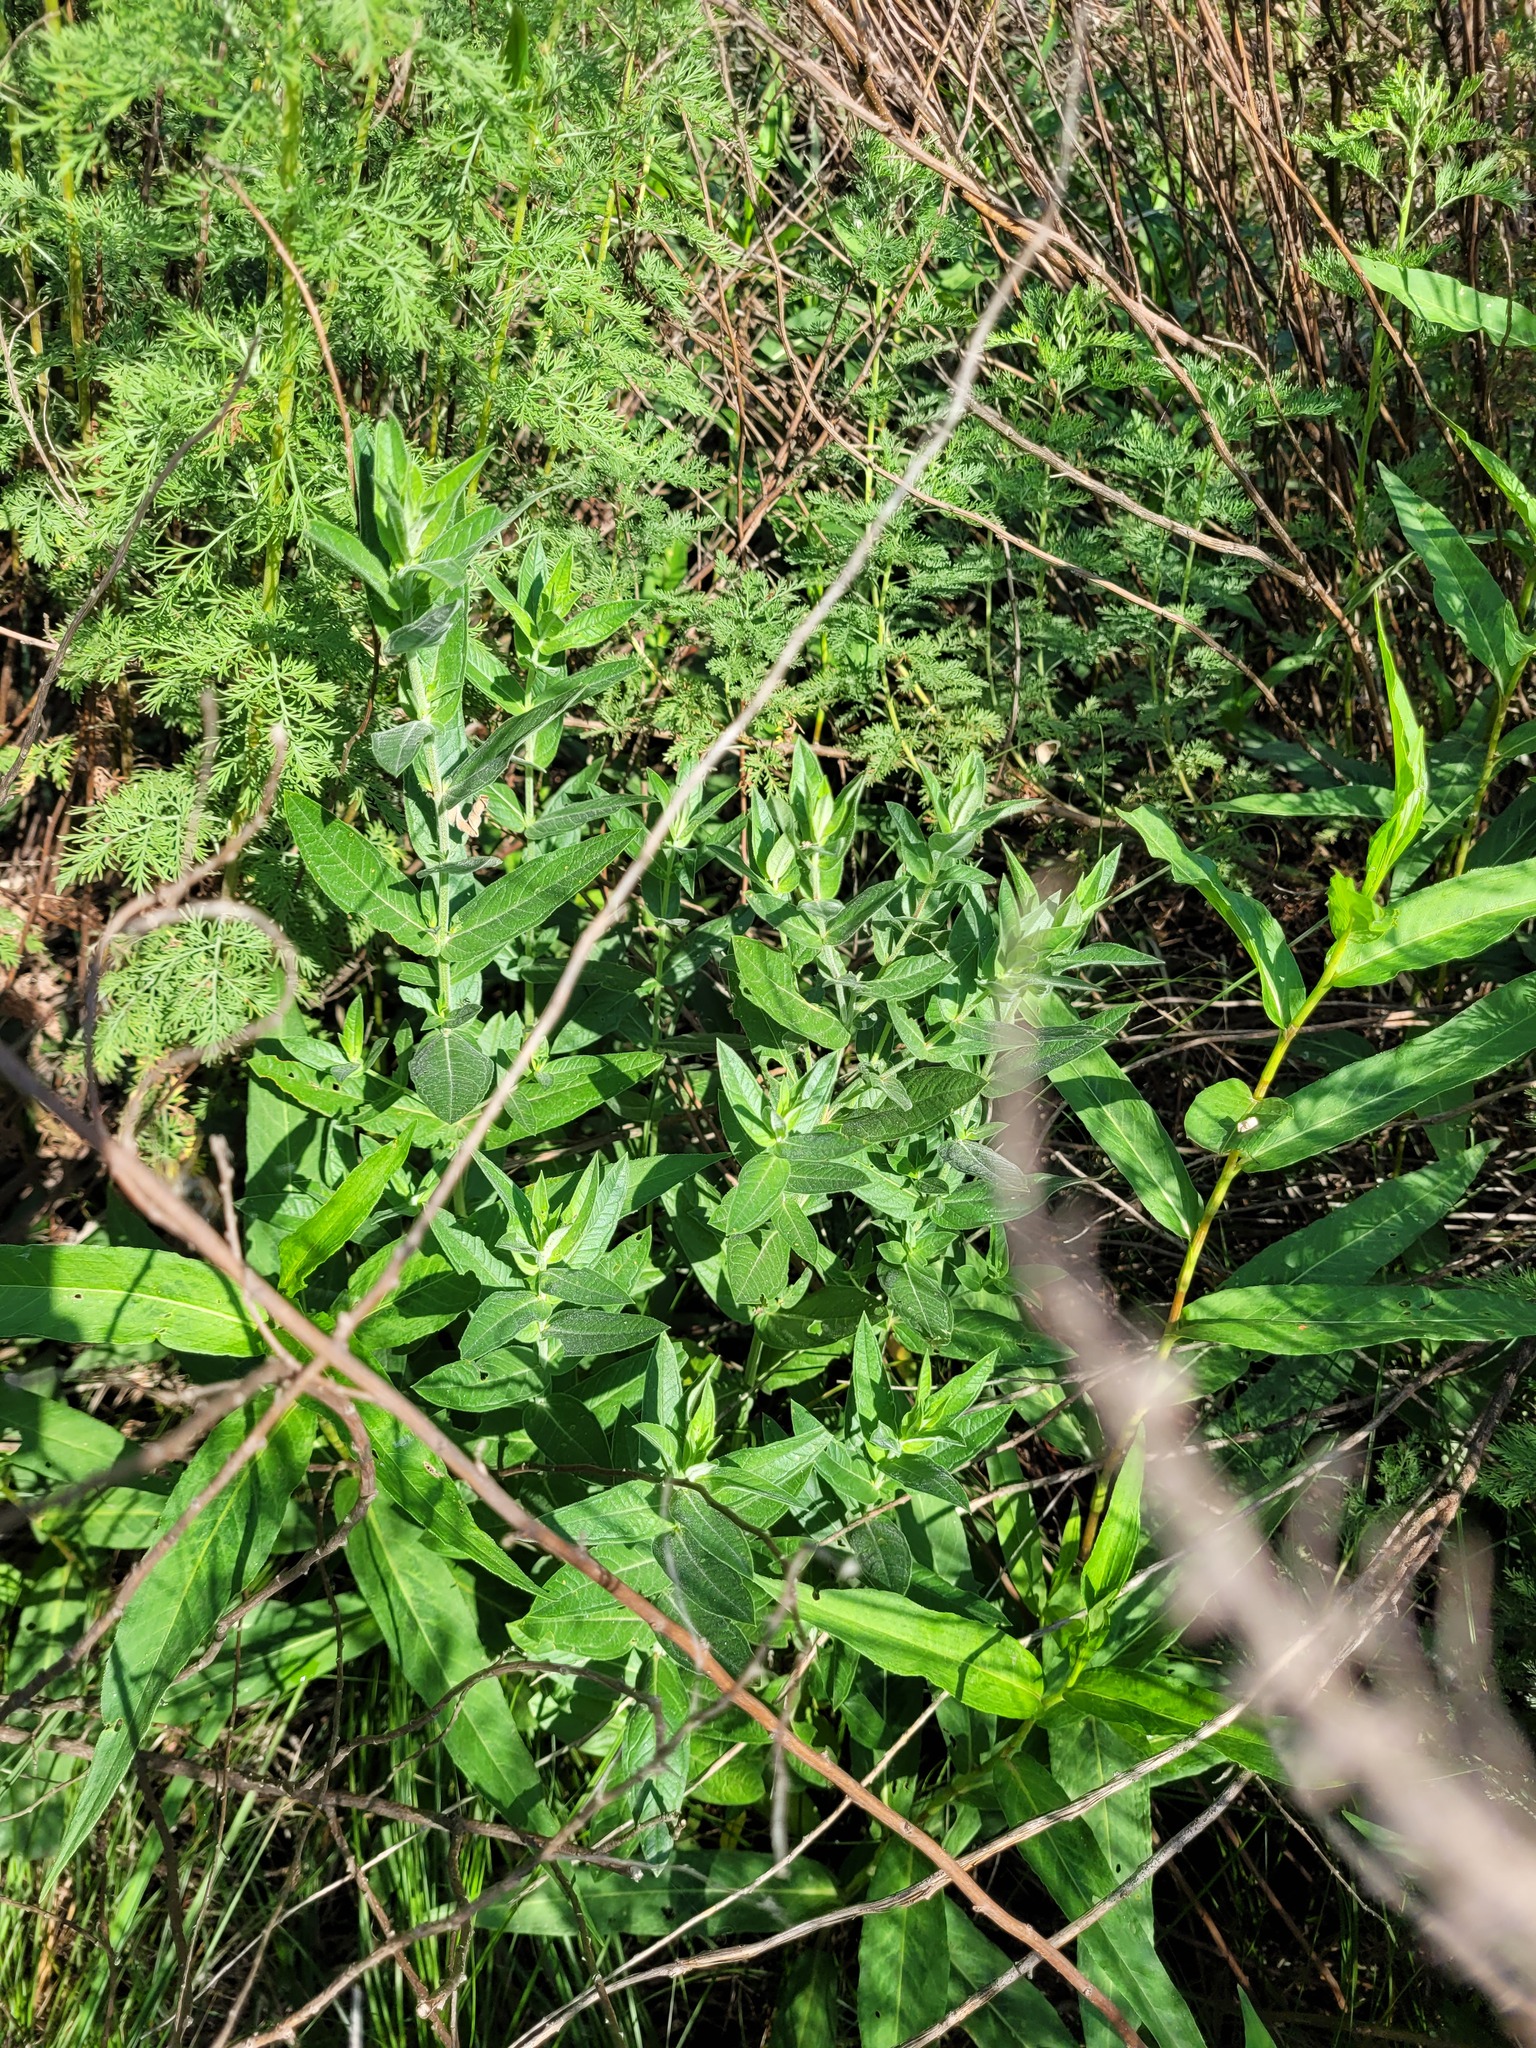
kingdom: Plantae
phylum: Tracheophyta
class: Magnoliopsida
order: Myrtales
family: Lythraceae
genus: Lythrum
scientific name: Lythrum salicaria
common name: Purple loosestrife
